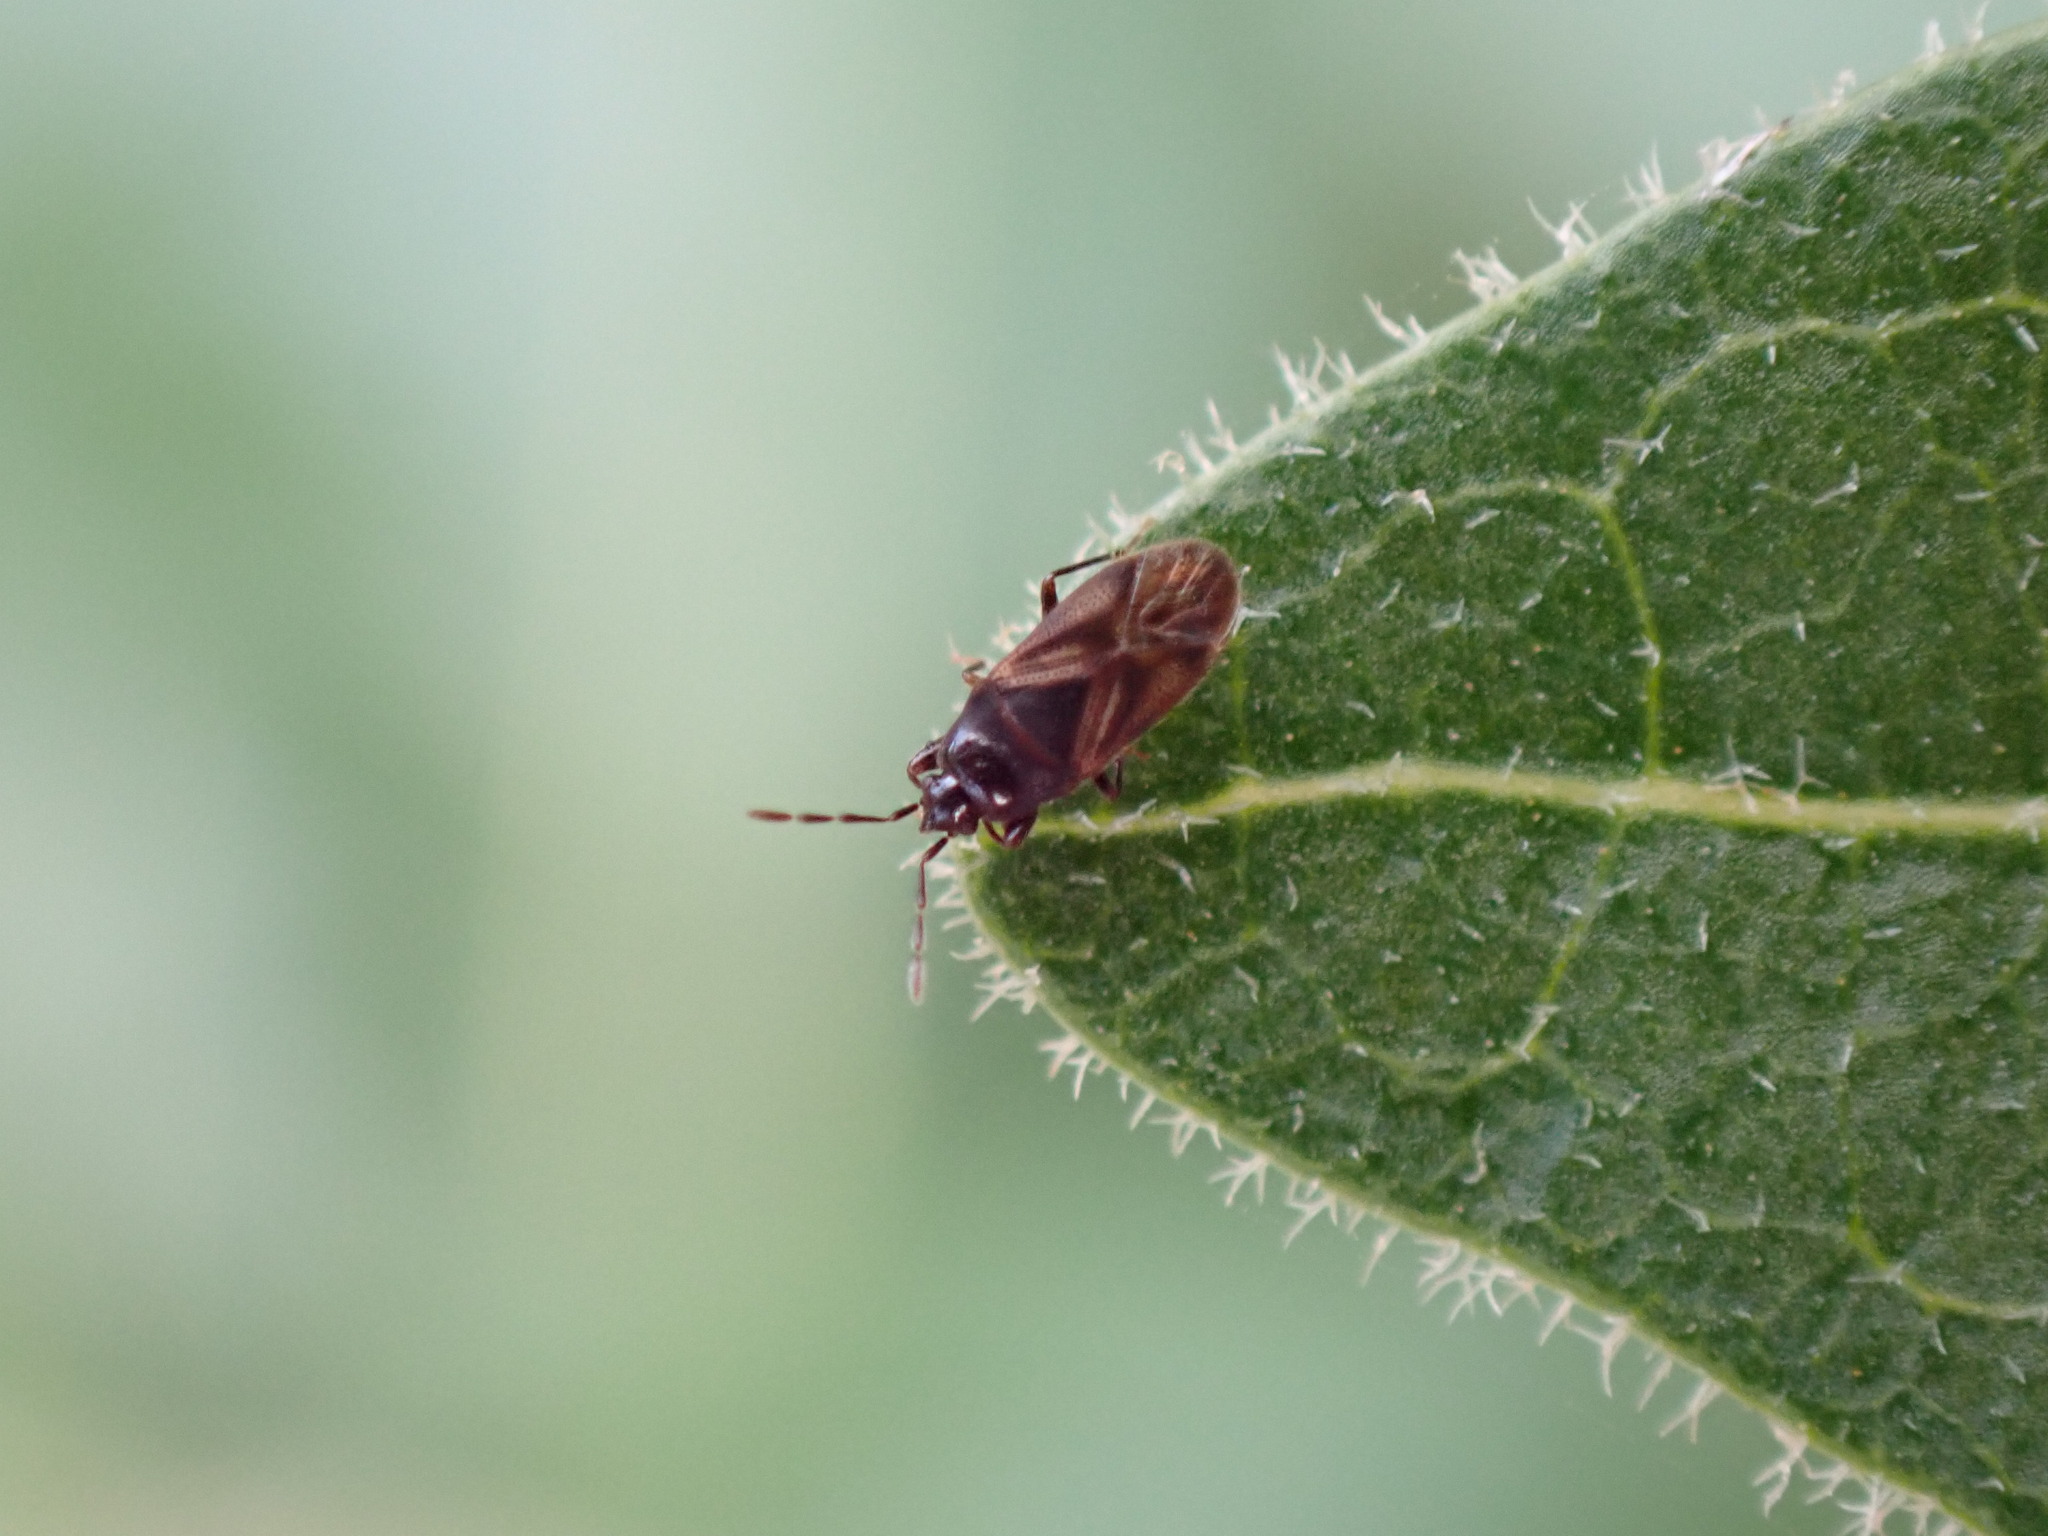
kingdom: Animalia
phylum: Arthropoda
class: Insecta
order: Hemiptera
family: Rhyparochromidae
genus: Tropistethus
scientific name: Tropistethus seminitens
